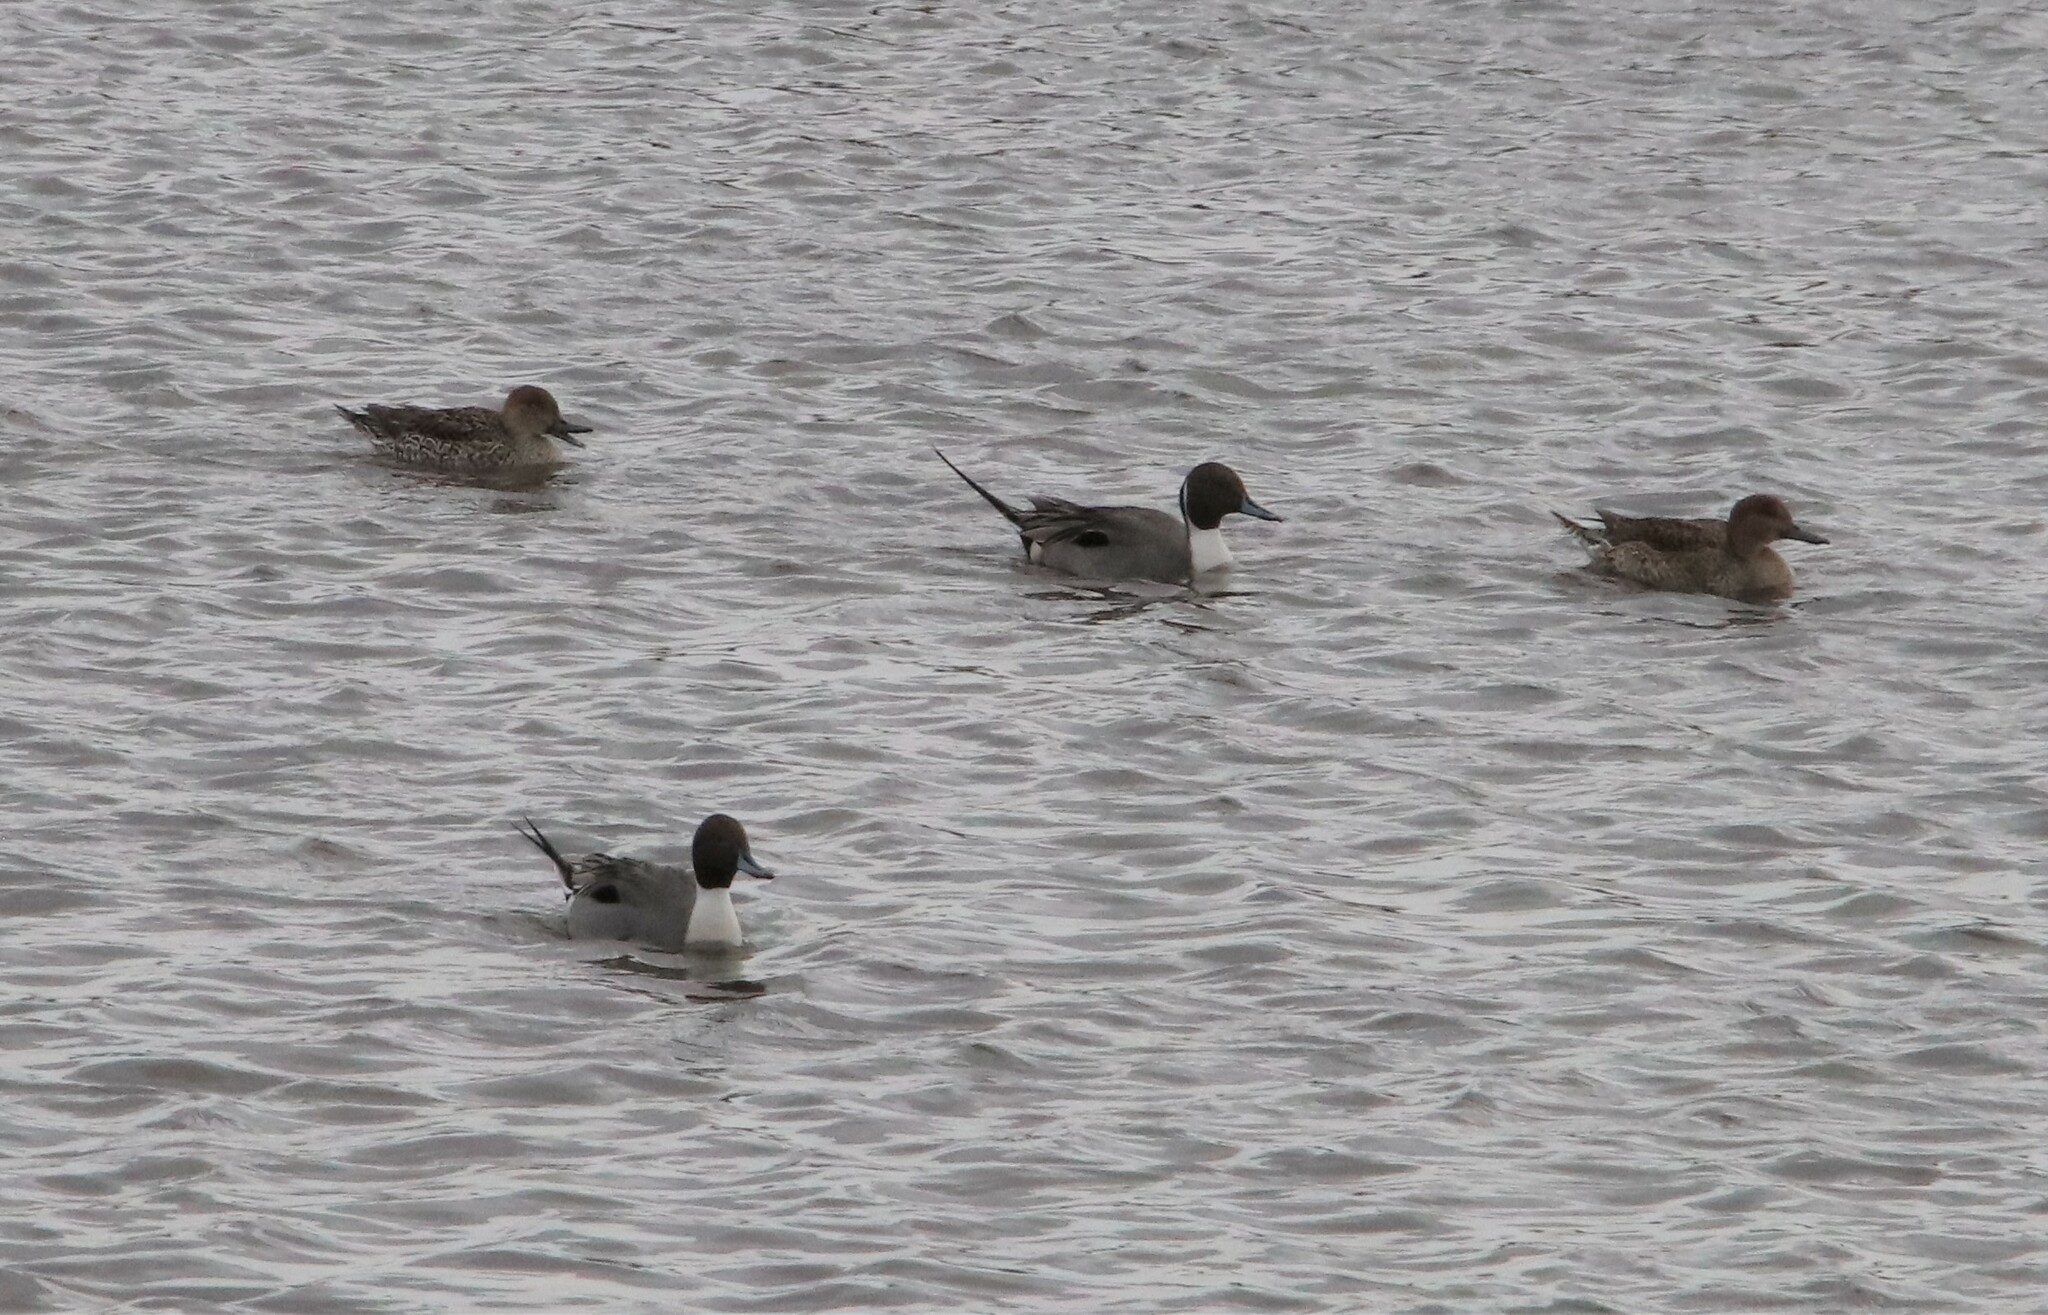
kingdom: Animalia
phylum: Chordata
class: Aves
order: Anseriformes
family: Anatidae
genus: Anas
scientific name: Anas acuta
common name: Northern pintail
